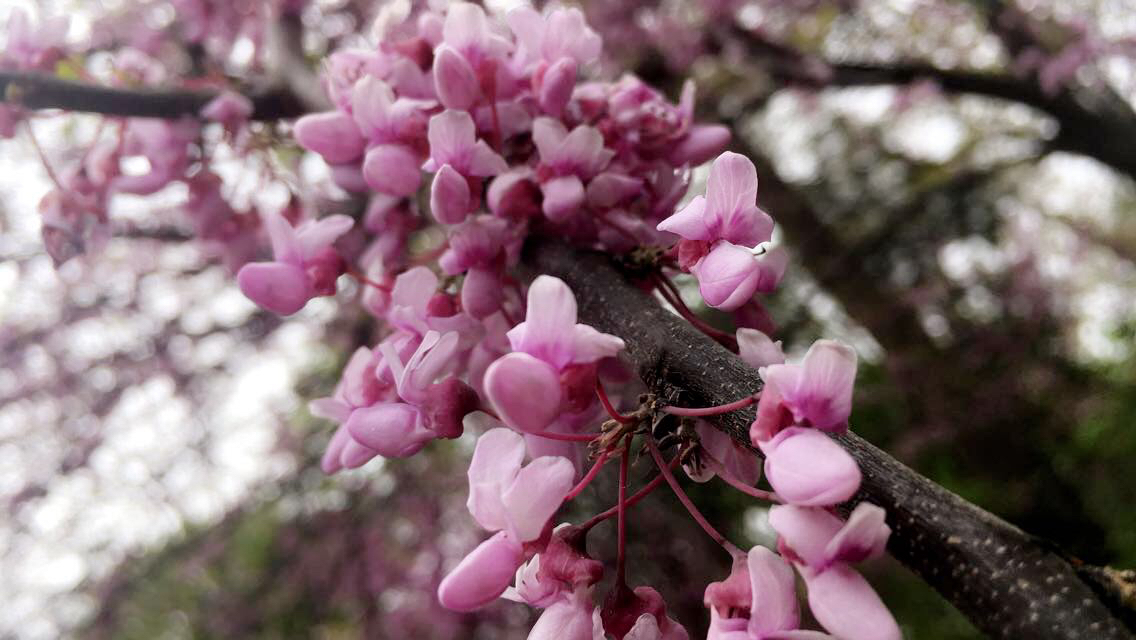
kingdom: Plantae
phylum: Tracheophyta
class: Magnoliopsida
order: Fabales
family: Fabaceae
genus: Cercis
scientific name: Cercis canadensis
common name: Eastern redbud
